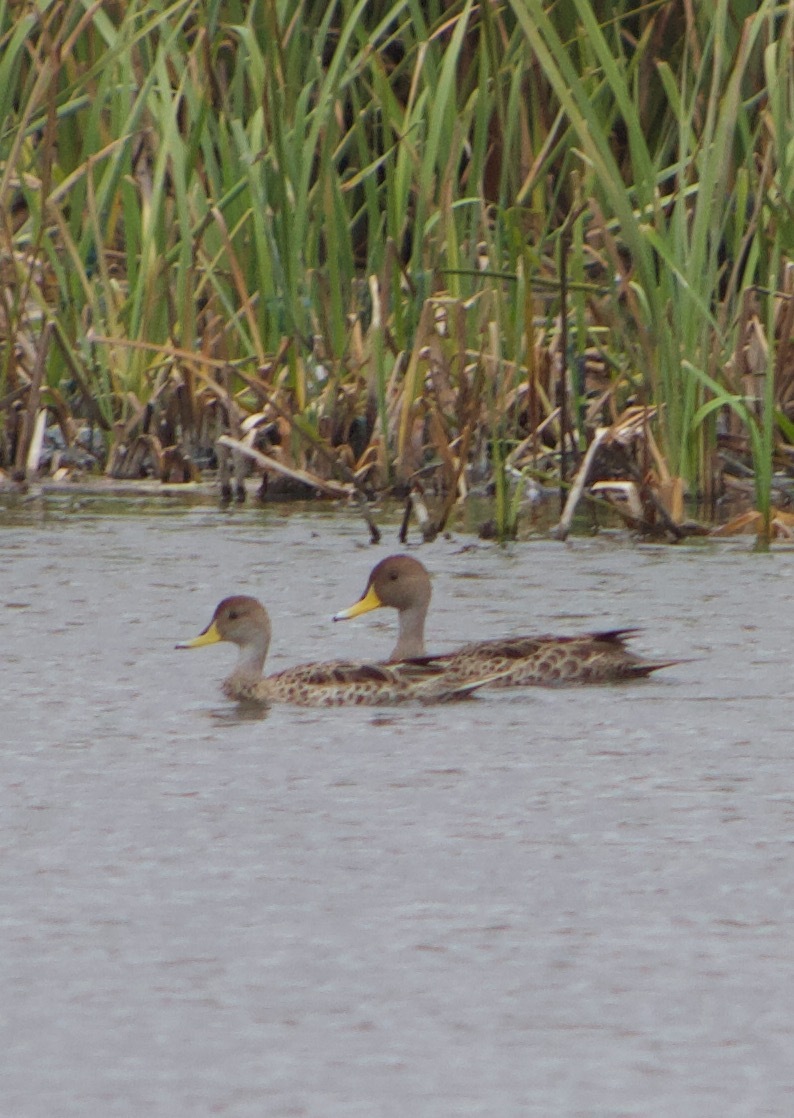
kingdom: Animalia
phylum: Chordata
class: Aves
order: Anseriformes
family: Anatidae
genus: Anas
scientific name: Anas georgica
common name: Yellow-billed pintail
